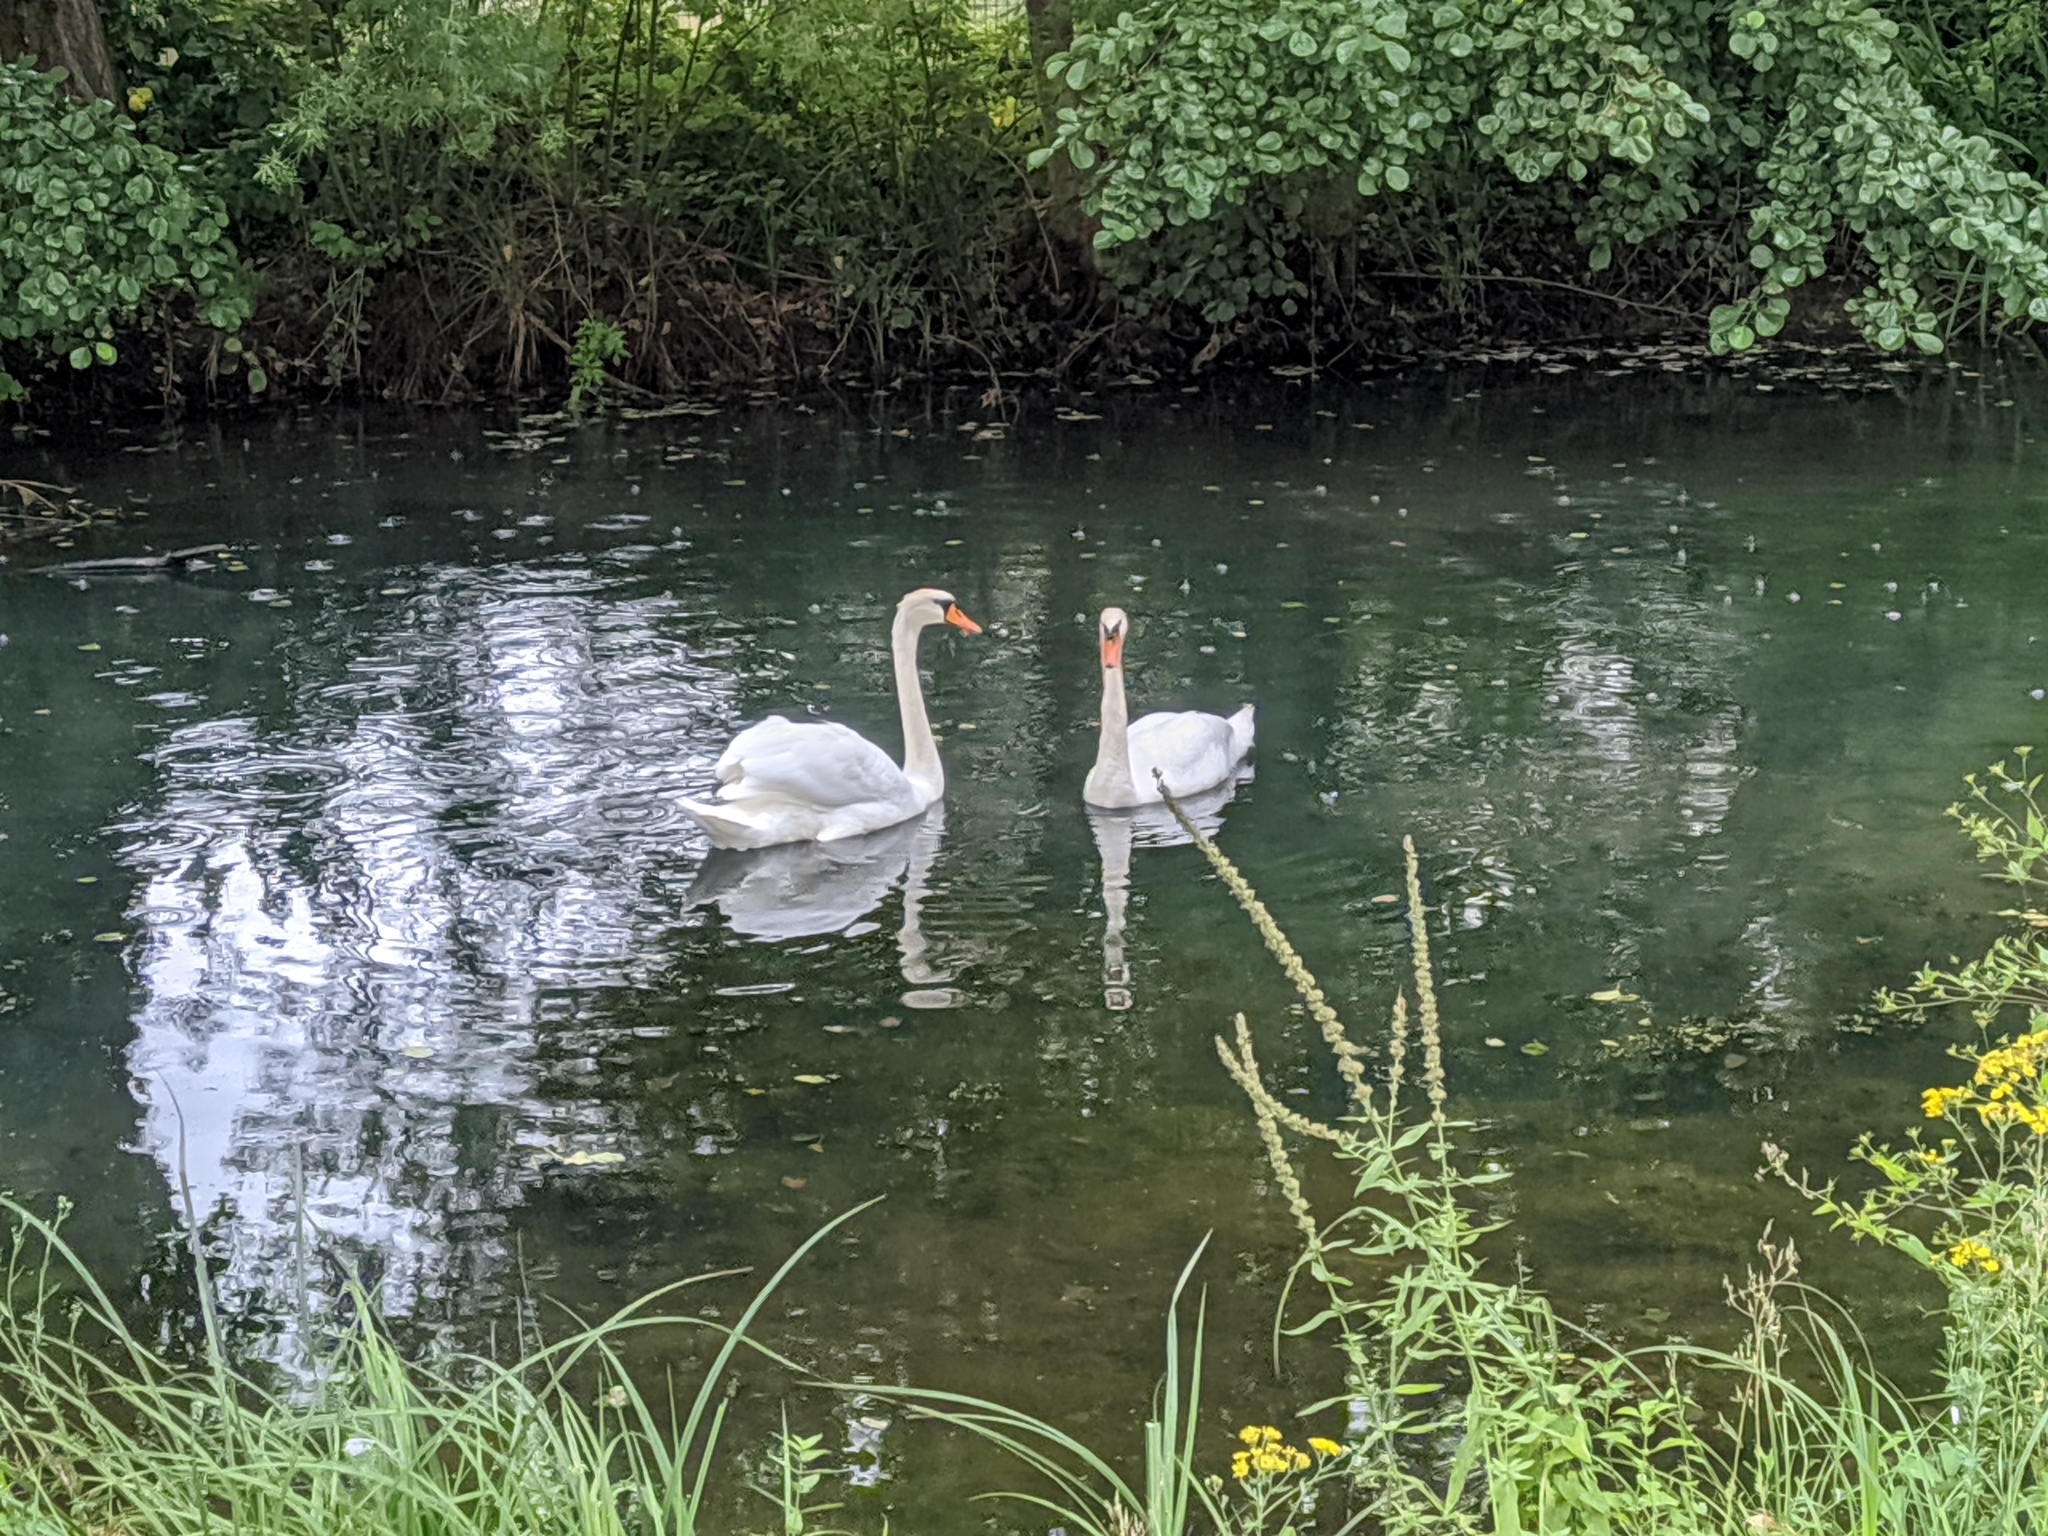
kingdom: Animalia
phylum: Chordata
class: Aves
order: Anseriformes
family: Anatidae
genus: Cygnus
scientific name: Cygnus olor
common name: Mute swan
